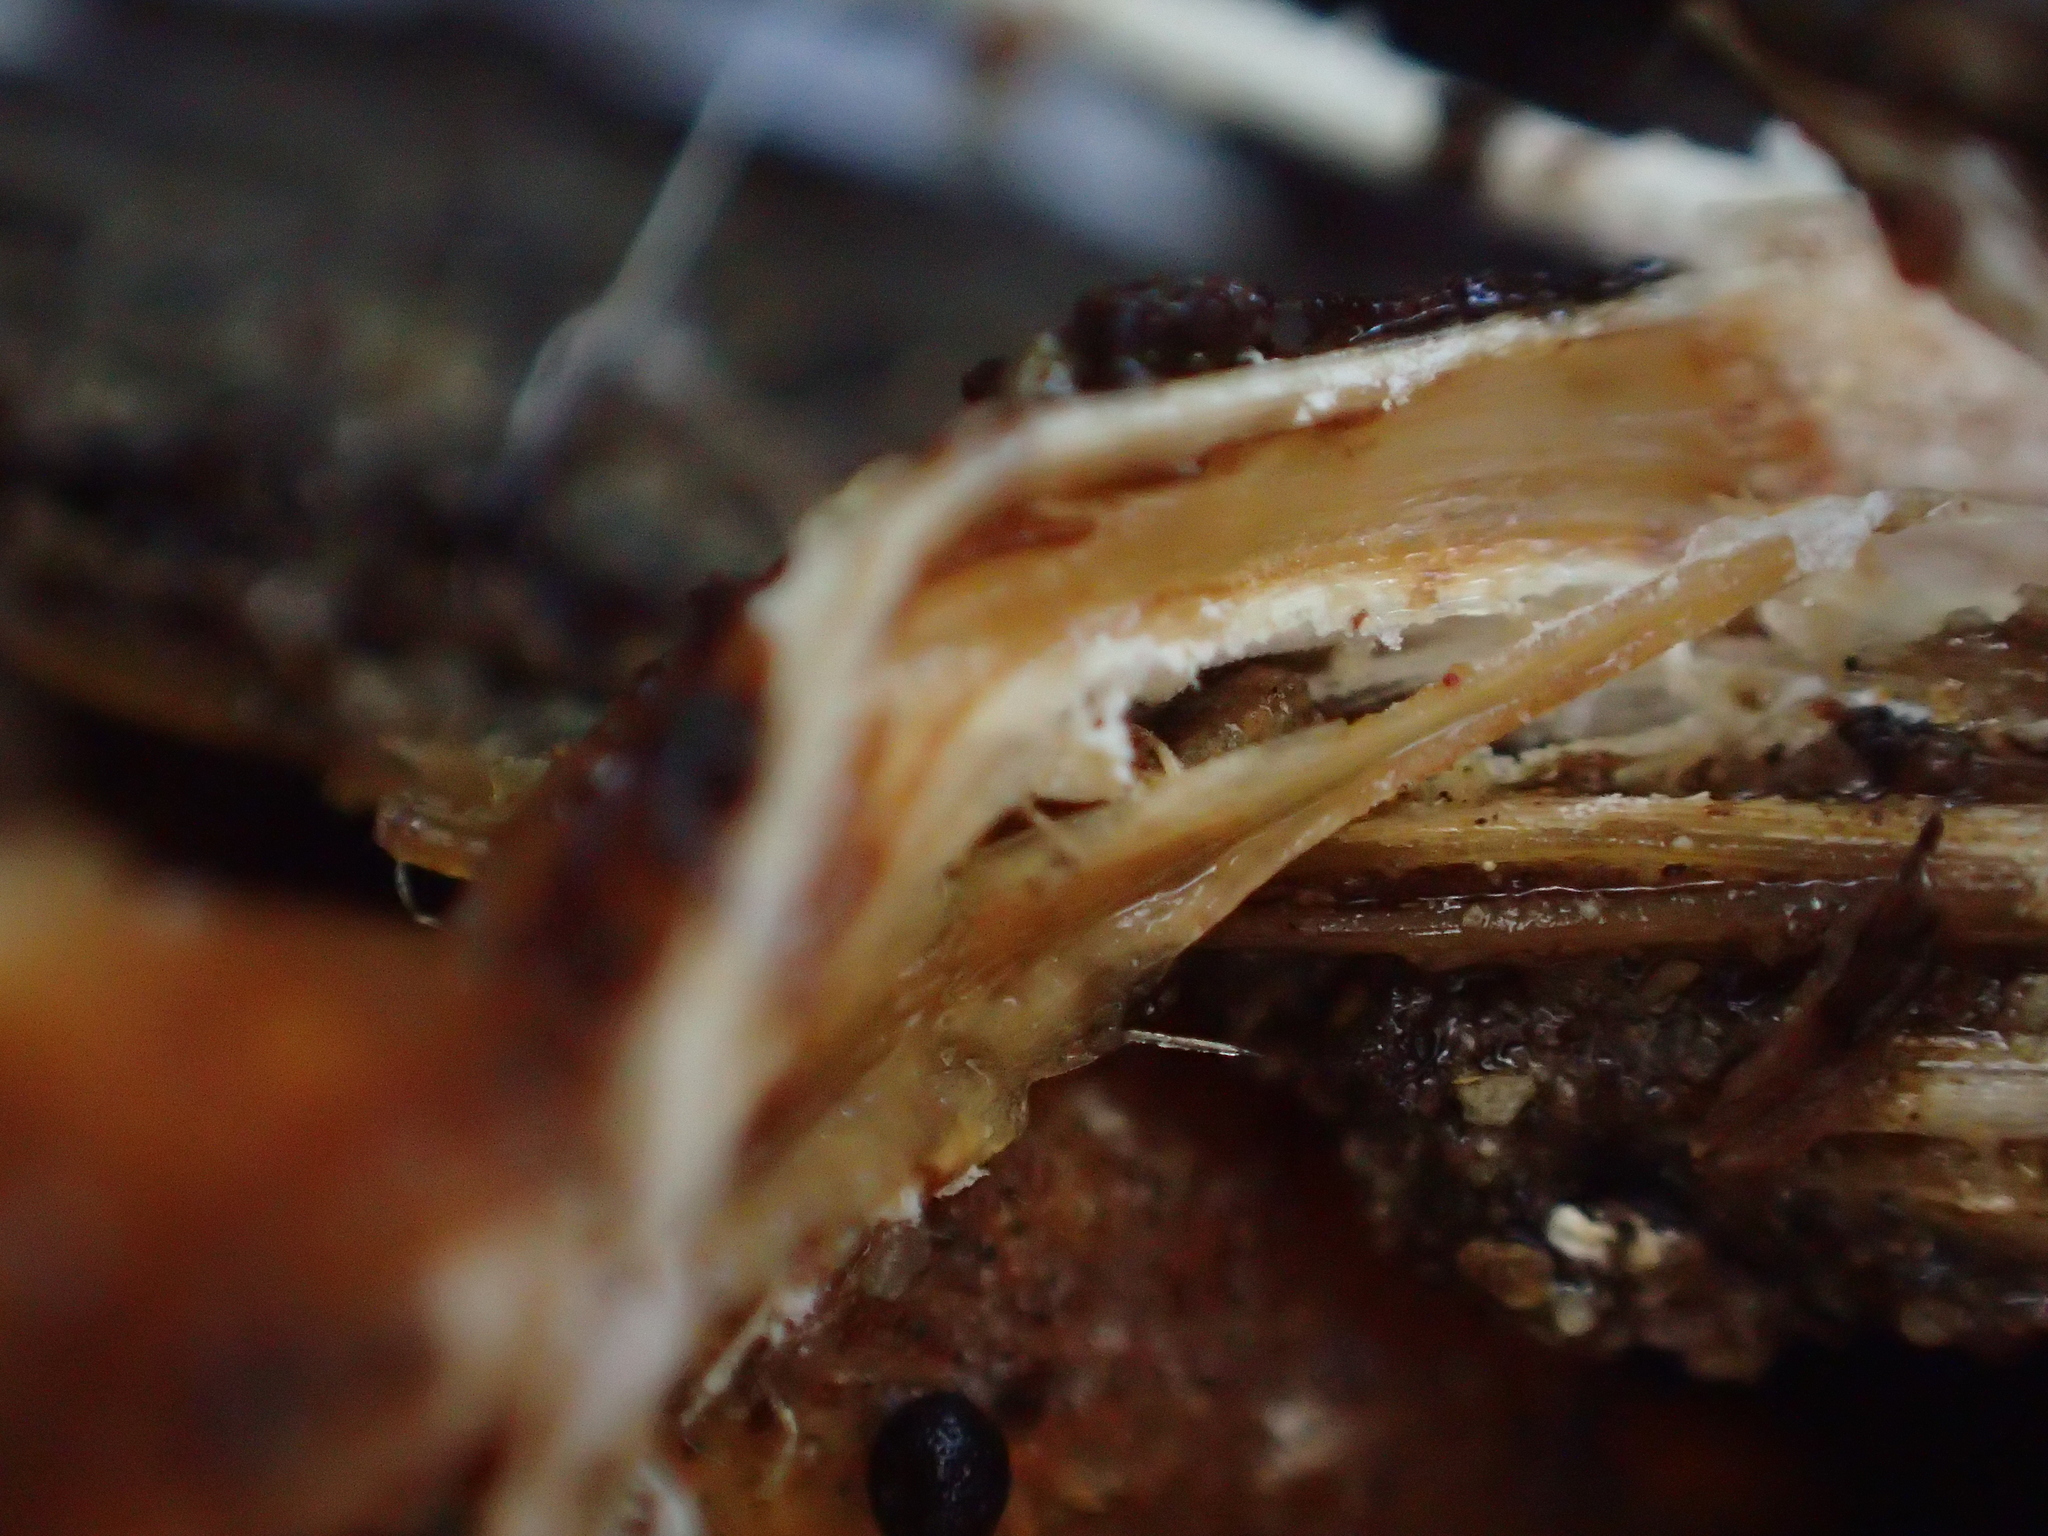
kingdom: Fungi
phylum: Basidiomycota
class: Agaricomycetes
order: Agaricales
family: Strophariaceae
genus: Leratiomyces
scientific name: Leratiomyces erythrocephalus
